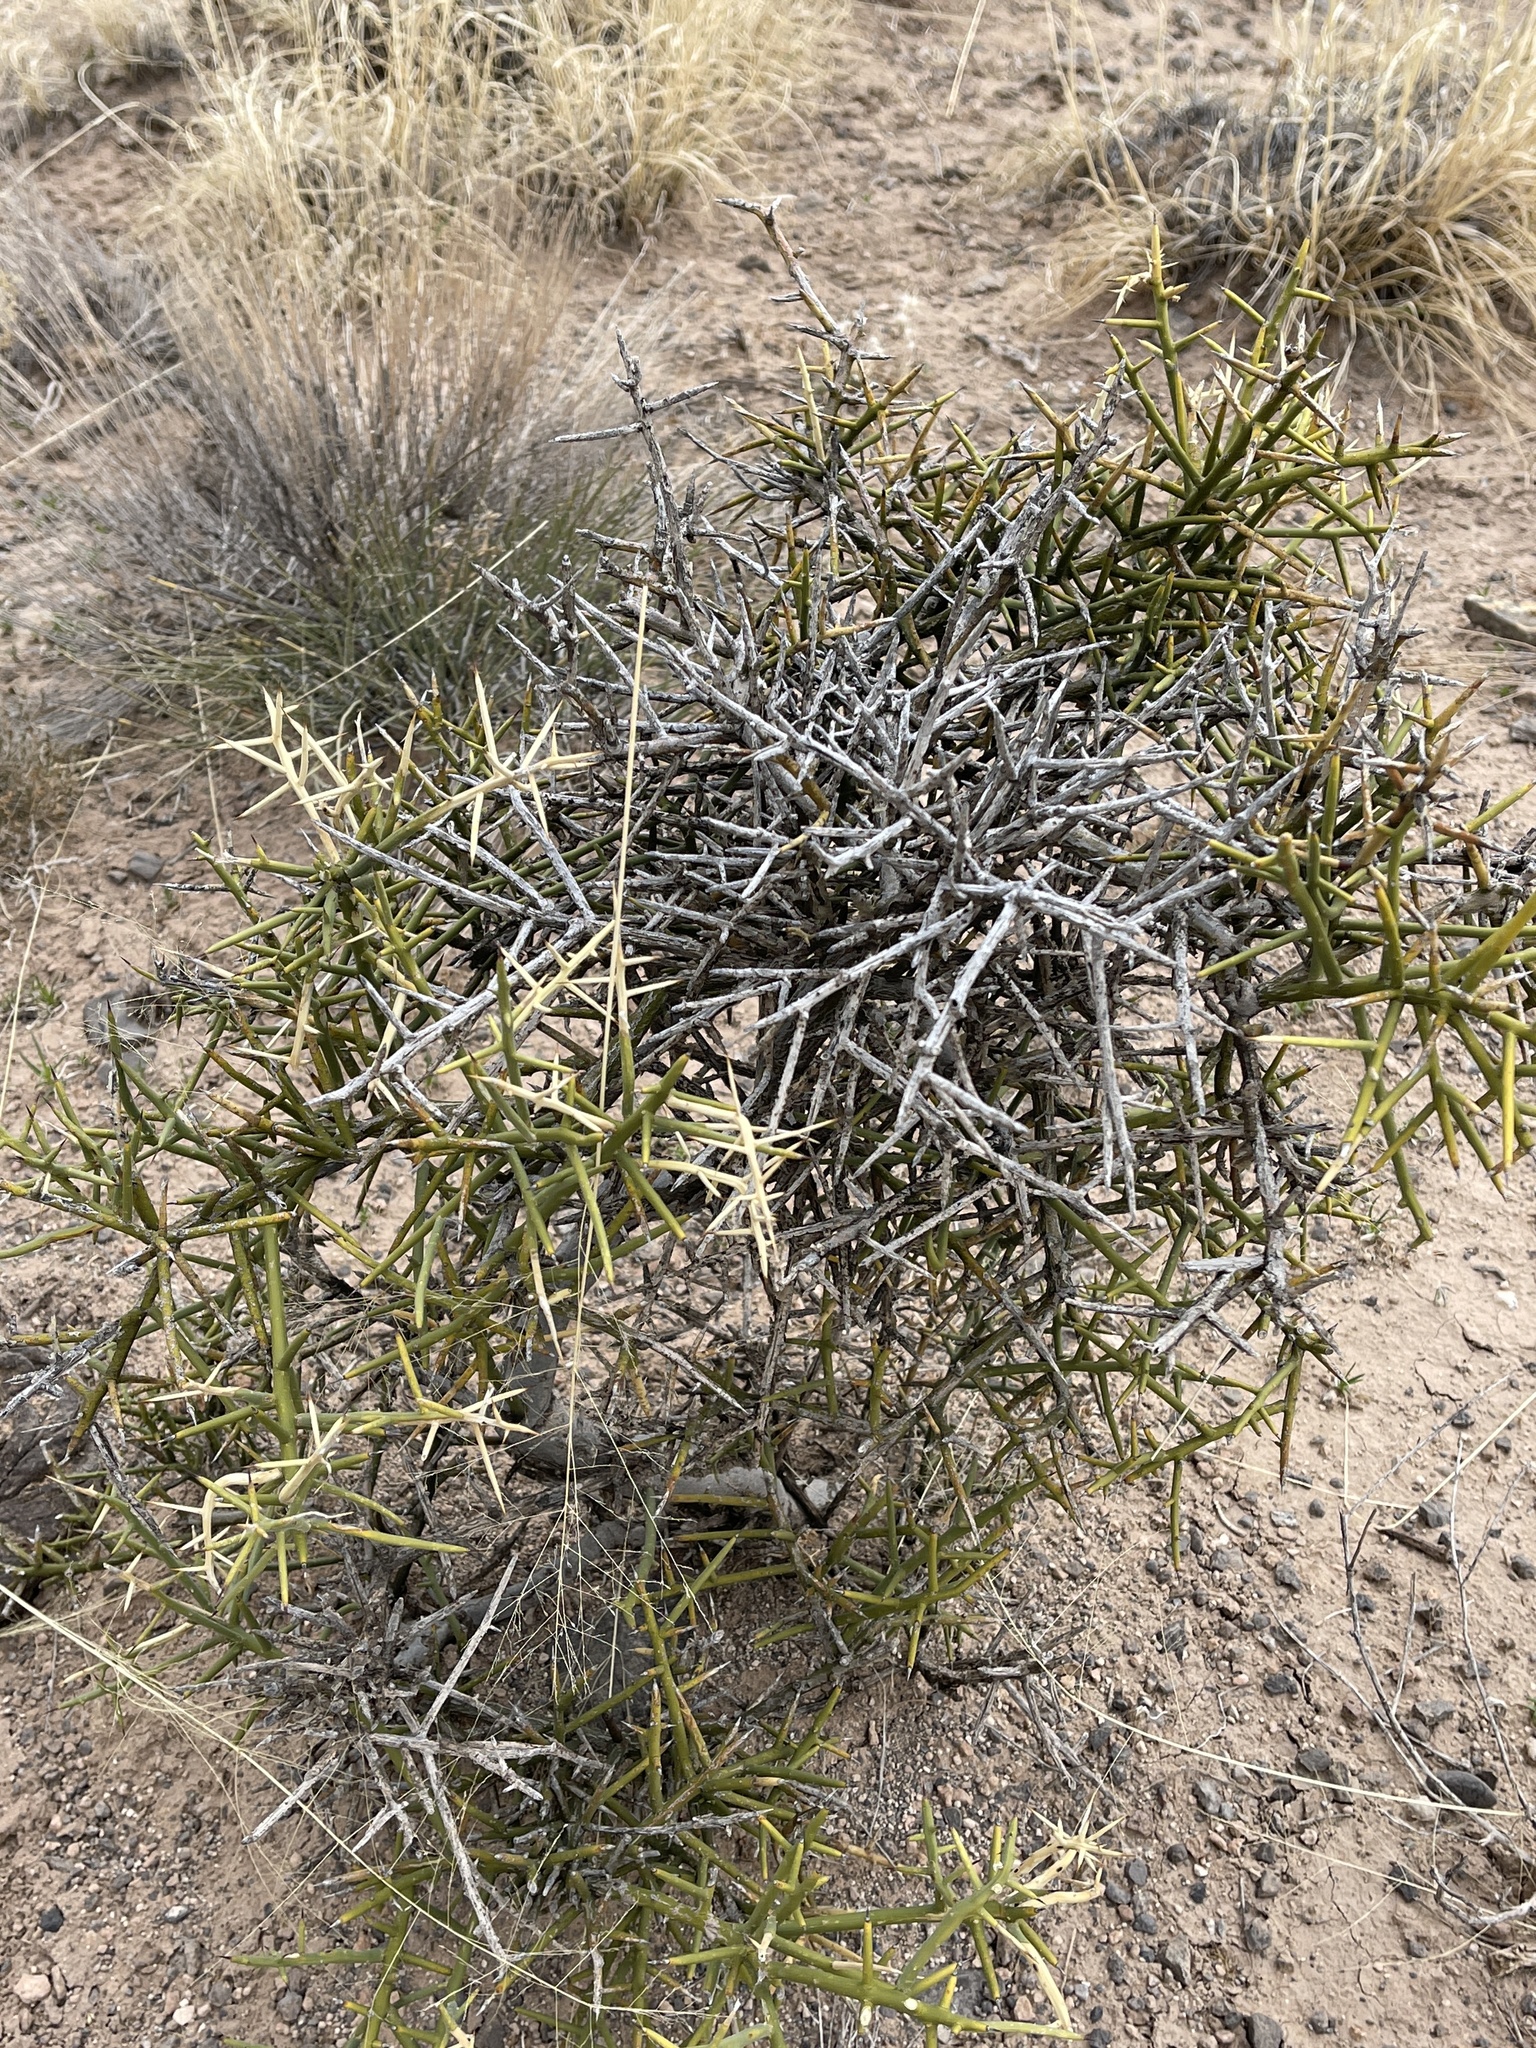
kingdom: Plantae
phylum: Tracheophyta
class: Magnoliopsida
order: Brassicales
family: Koeberliniaceae
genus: Koeberlinia
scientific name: Koeberlinia spinosa
